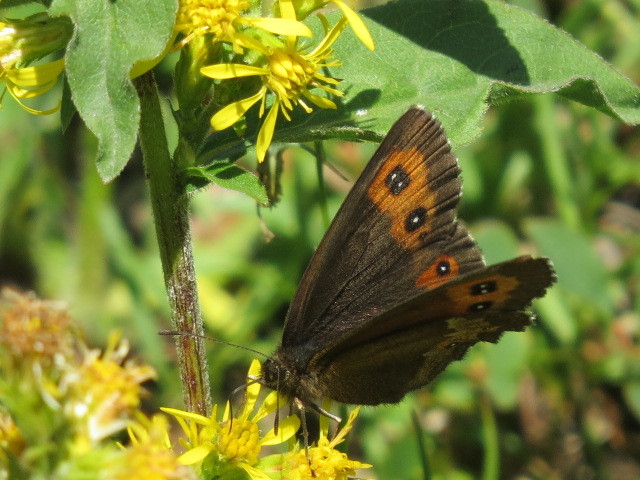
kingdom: Animalia
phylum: Arthropoda
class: Insecta
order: Lepidoptera
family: Nymphalidae
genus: Erebia
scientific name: Erebia euryale
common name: Large ringlet
